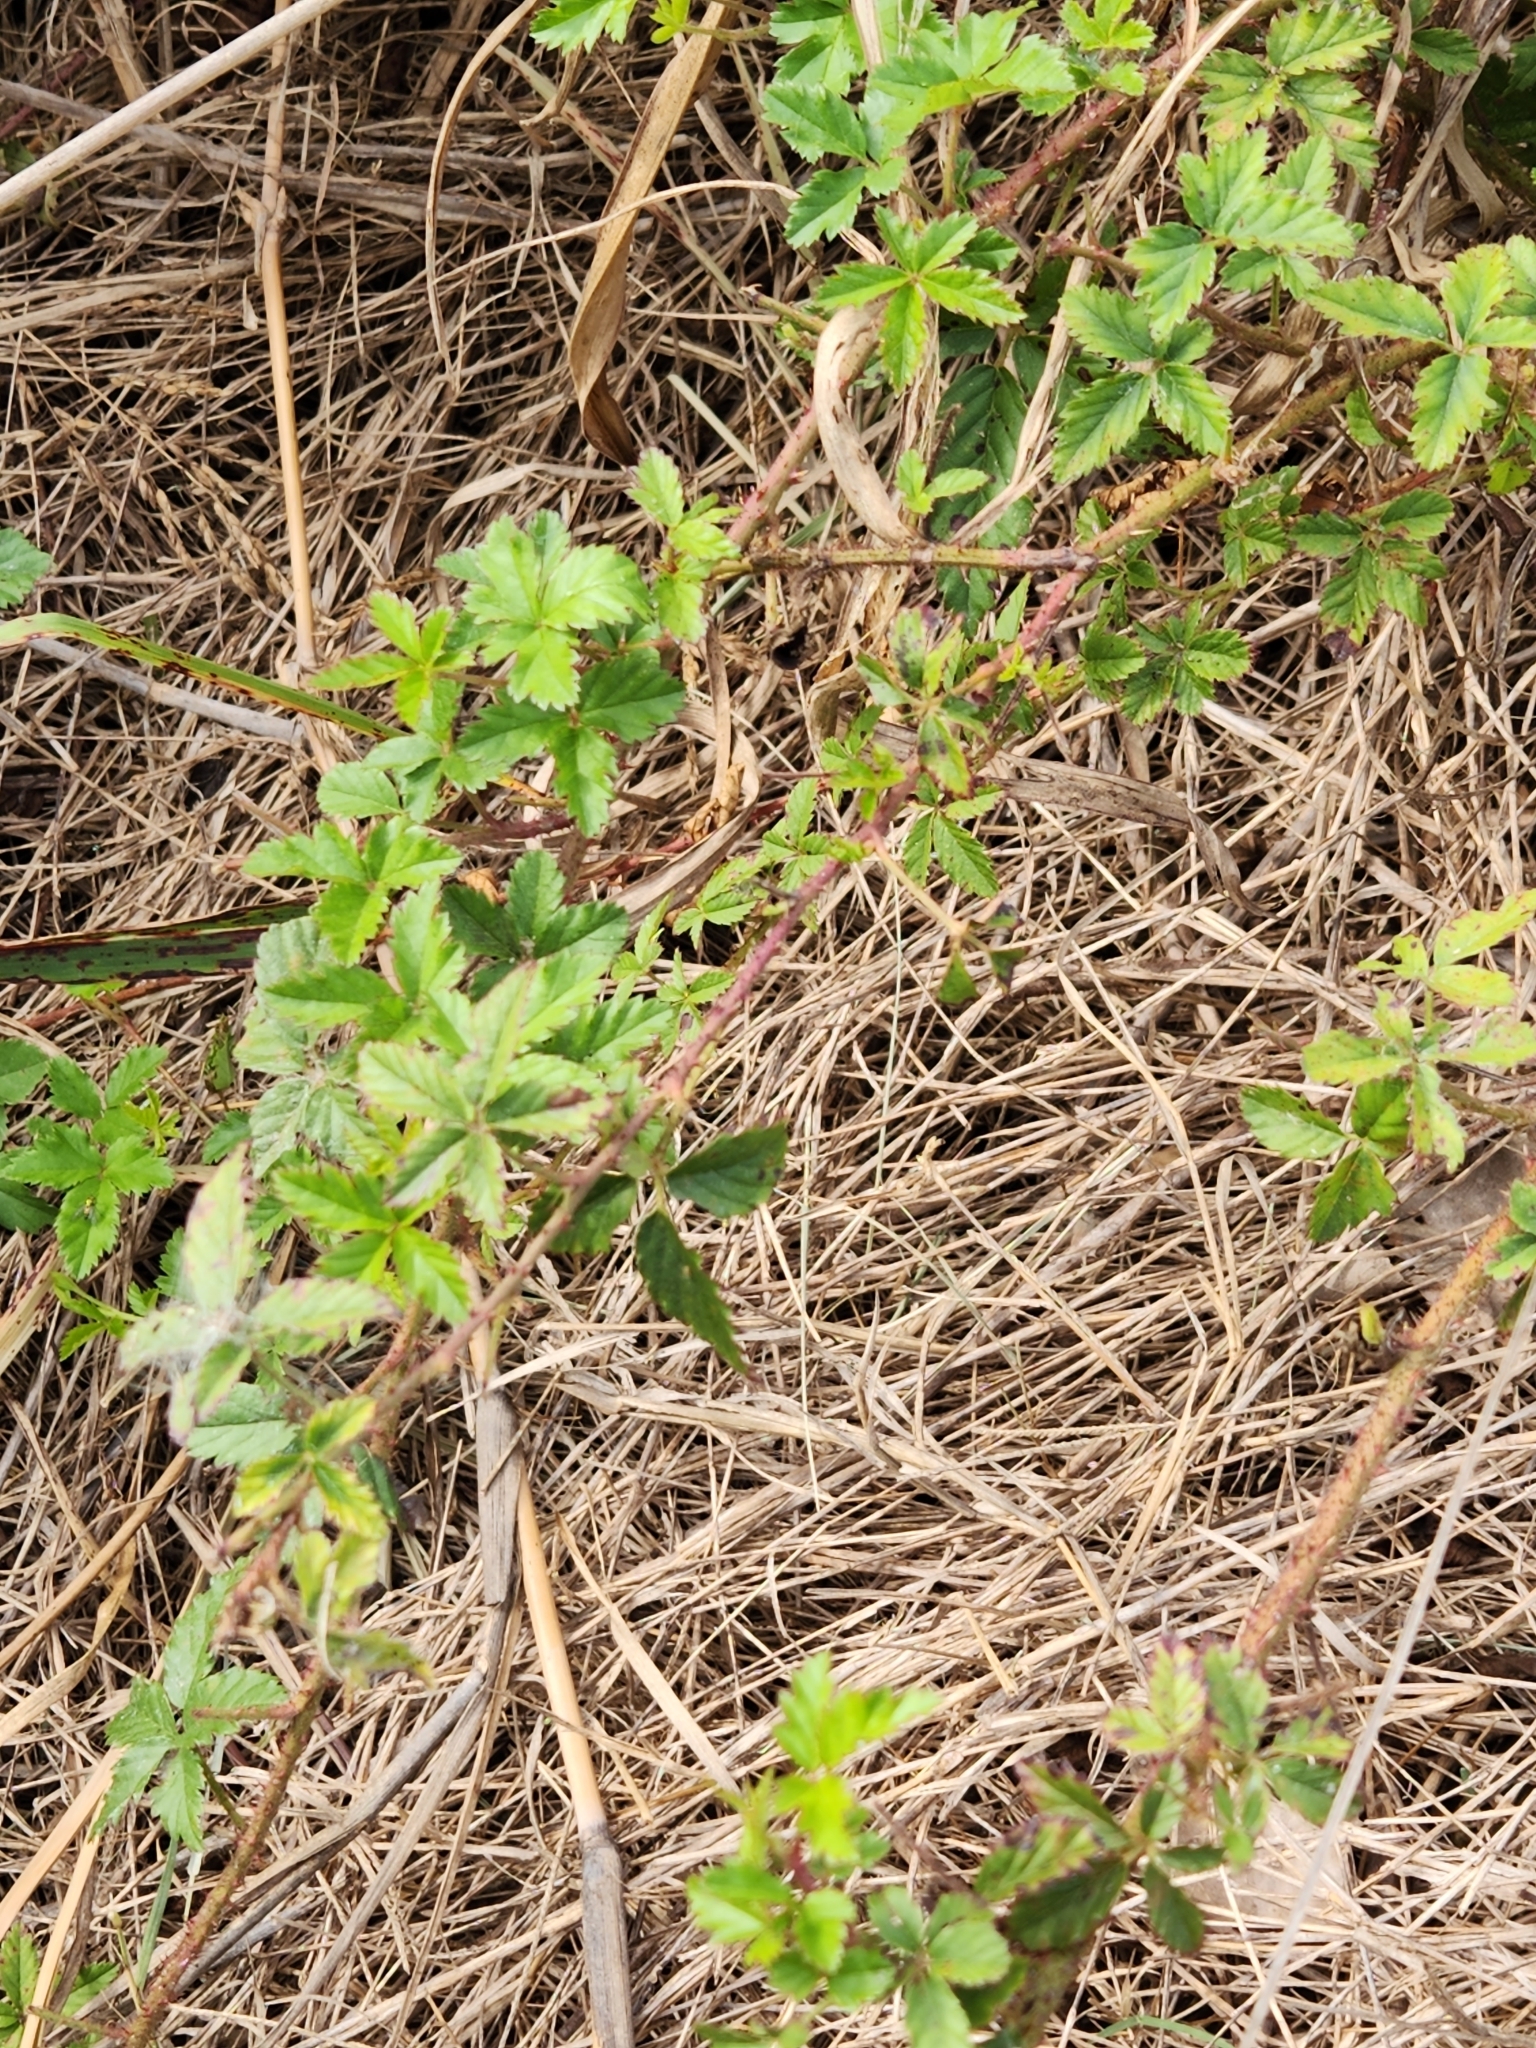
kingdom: Plantae
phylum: Tracheophyta
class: Magnoliopsida
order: Rosales
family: Rosaceae
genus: Rubus
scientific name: Rubus trivialis
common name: Southern dewberry
